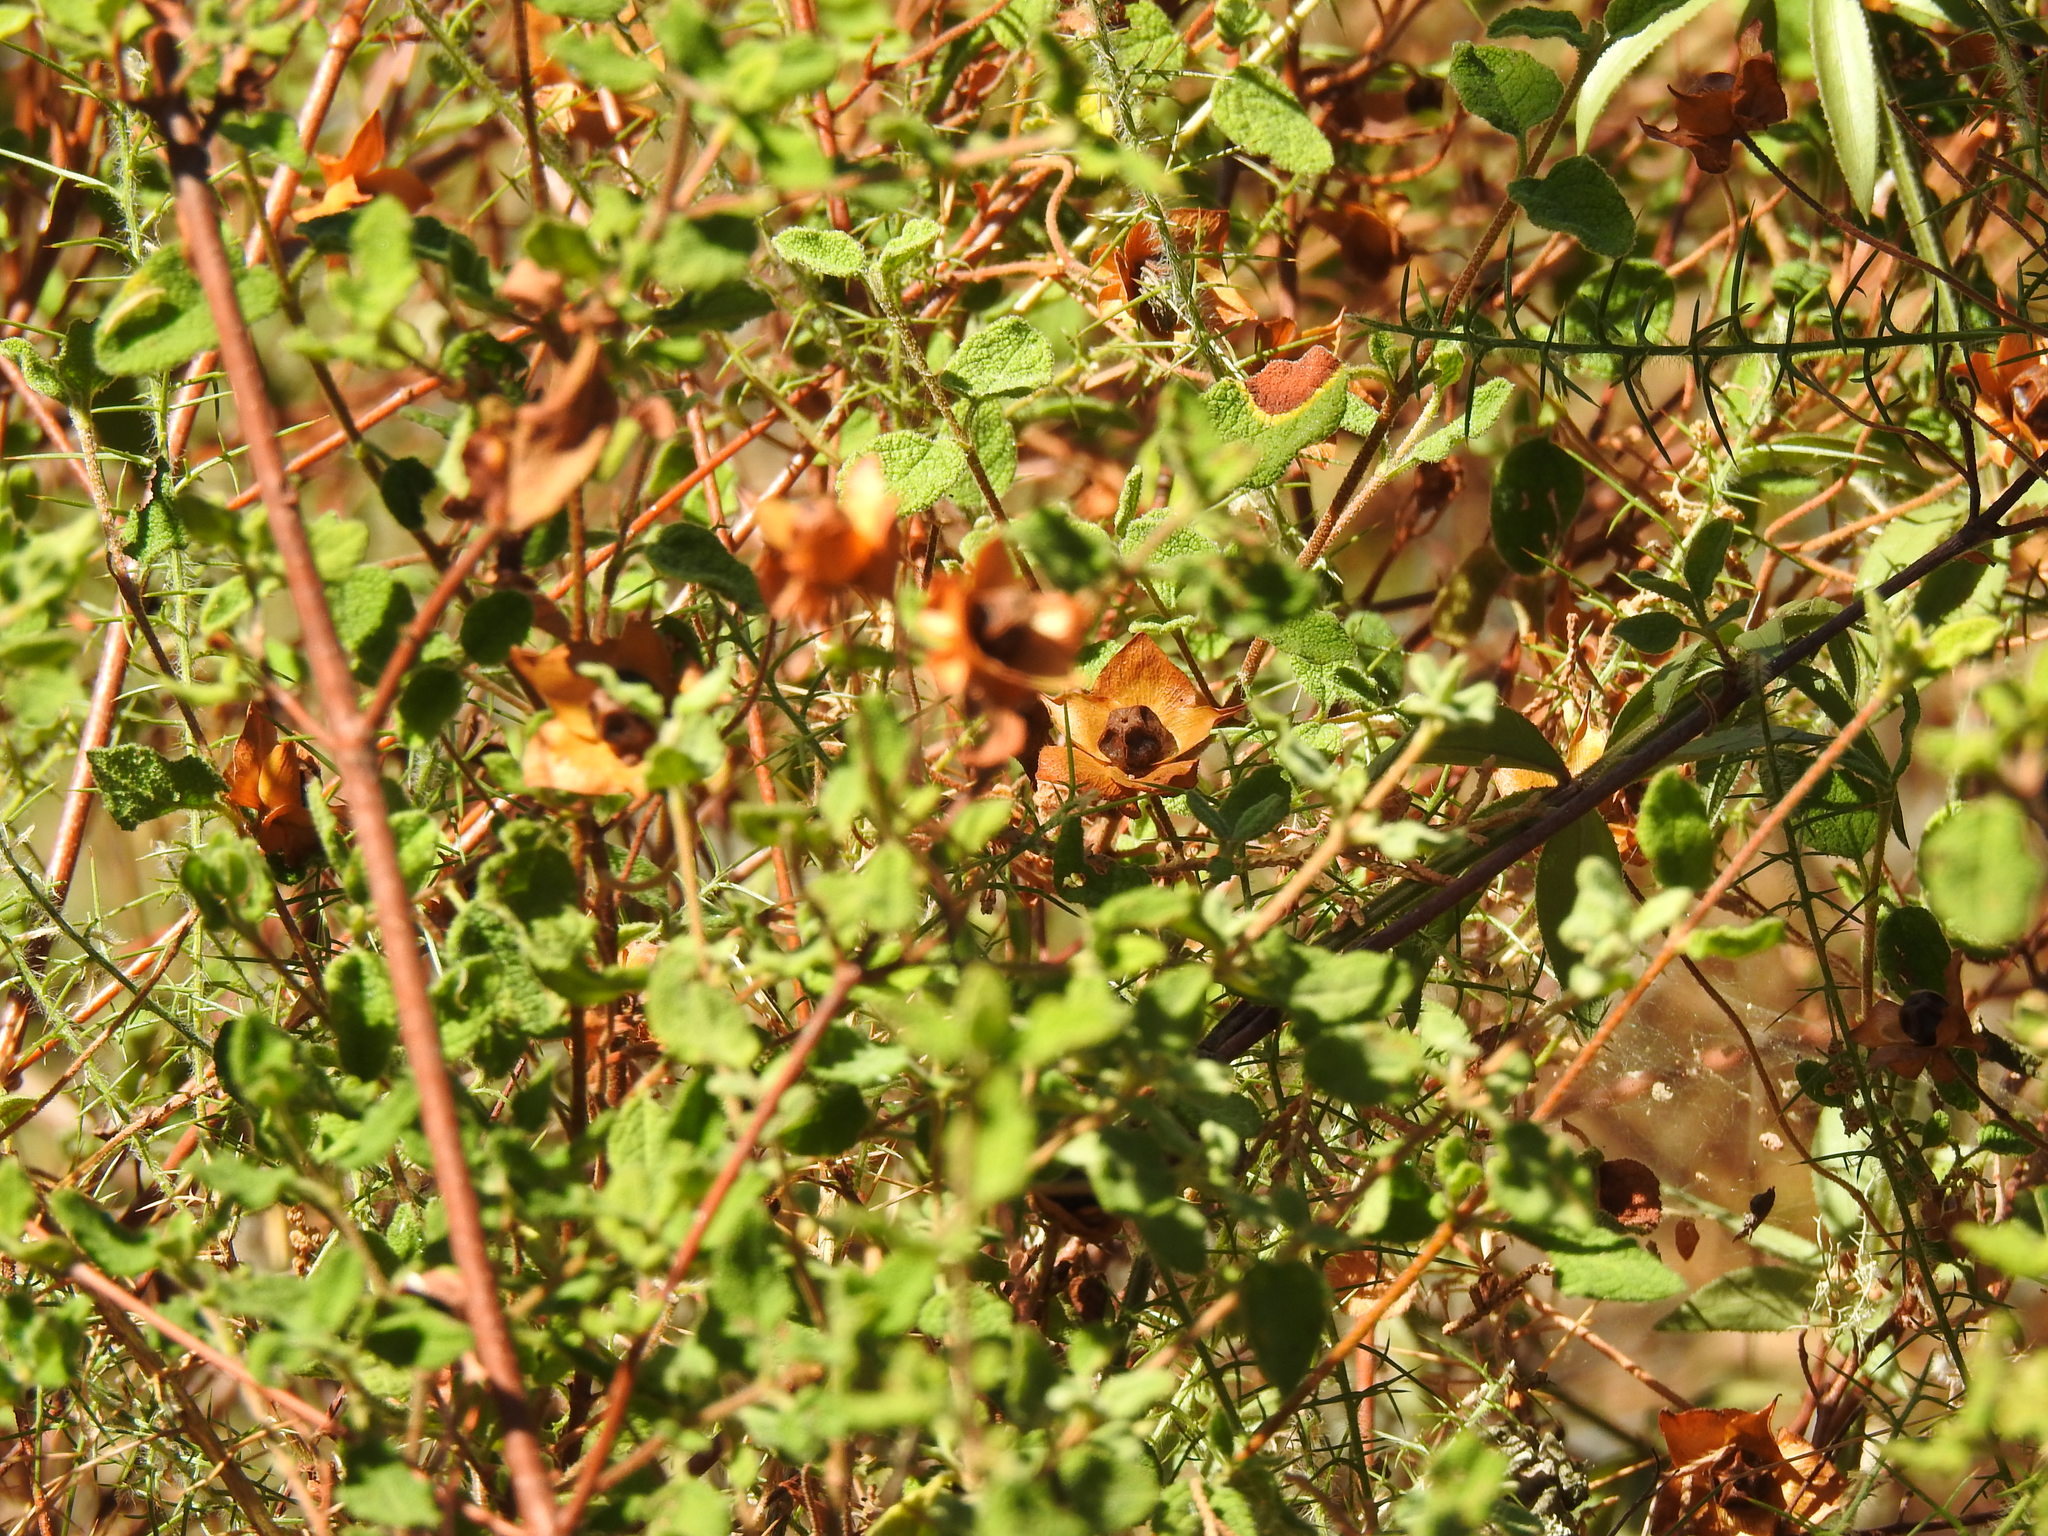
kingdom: Plantae
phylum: Tracheophyta
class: Magnoliopsida
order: Malvales
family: Cistaceae
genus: Cistus
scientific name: Cistus salviifolius
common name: Salvia cistus
